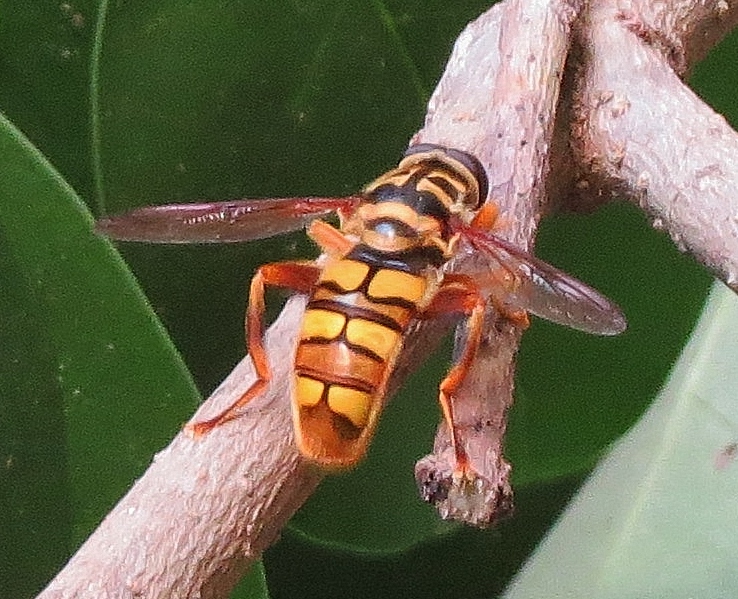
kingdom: Animalia
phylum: Arthropoda
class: Insecta
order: Diptera
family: Syrphidae
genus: Milesia
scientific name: Milesia virginiensis
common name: Virginia giant
